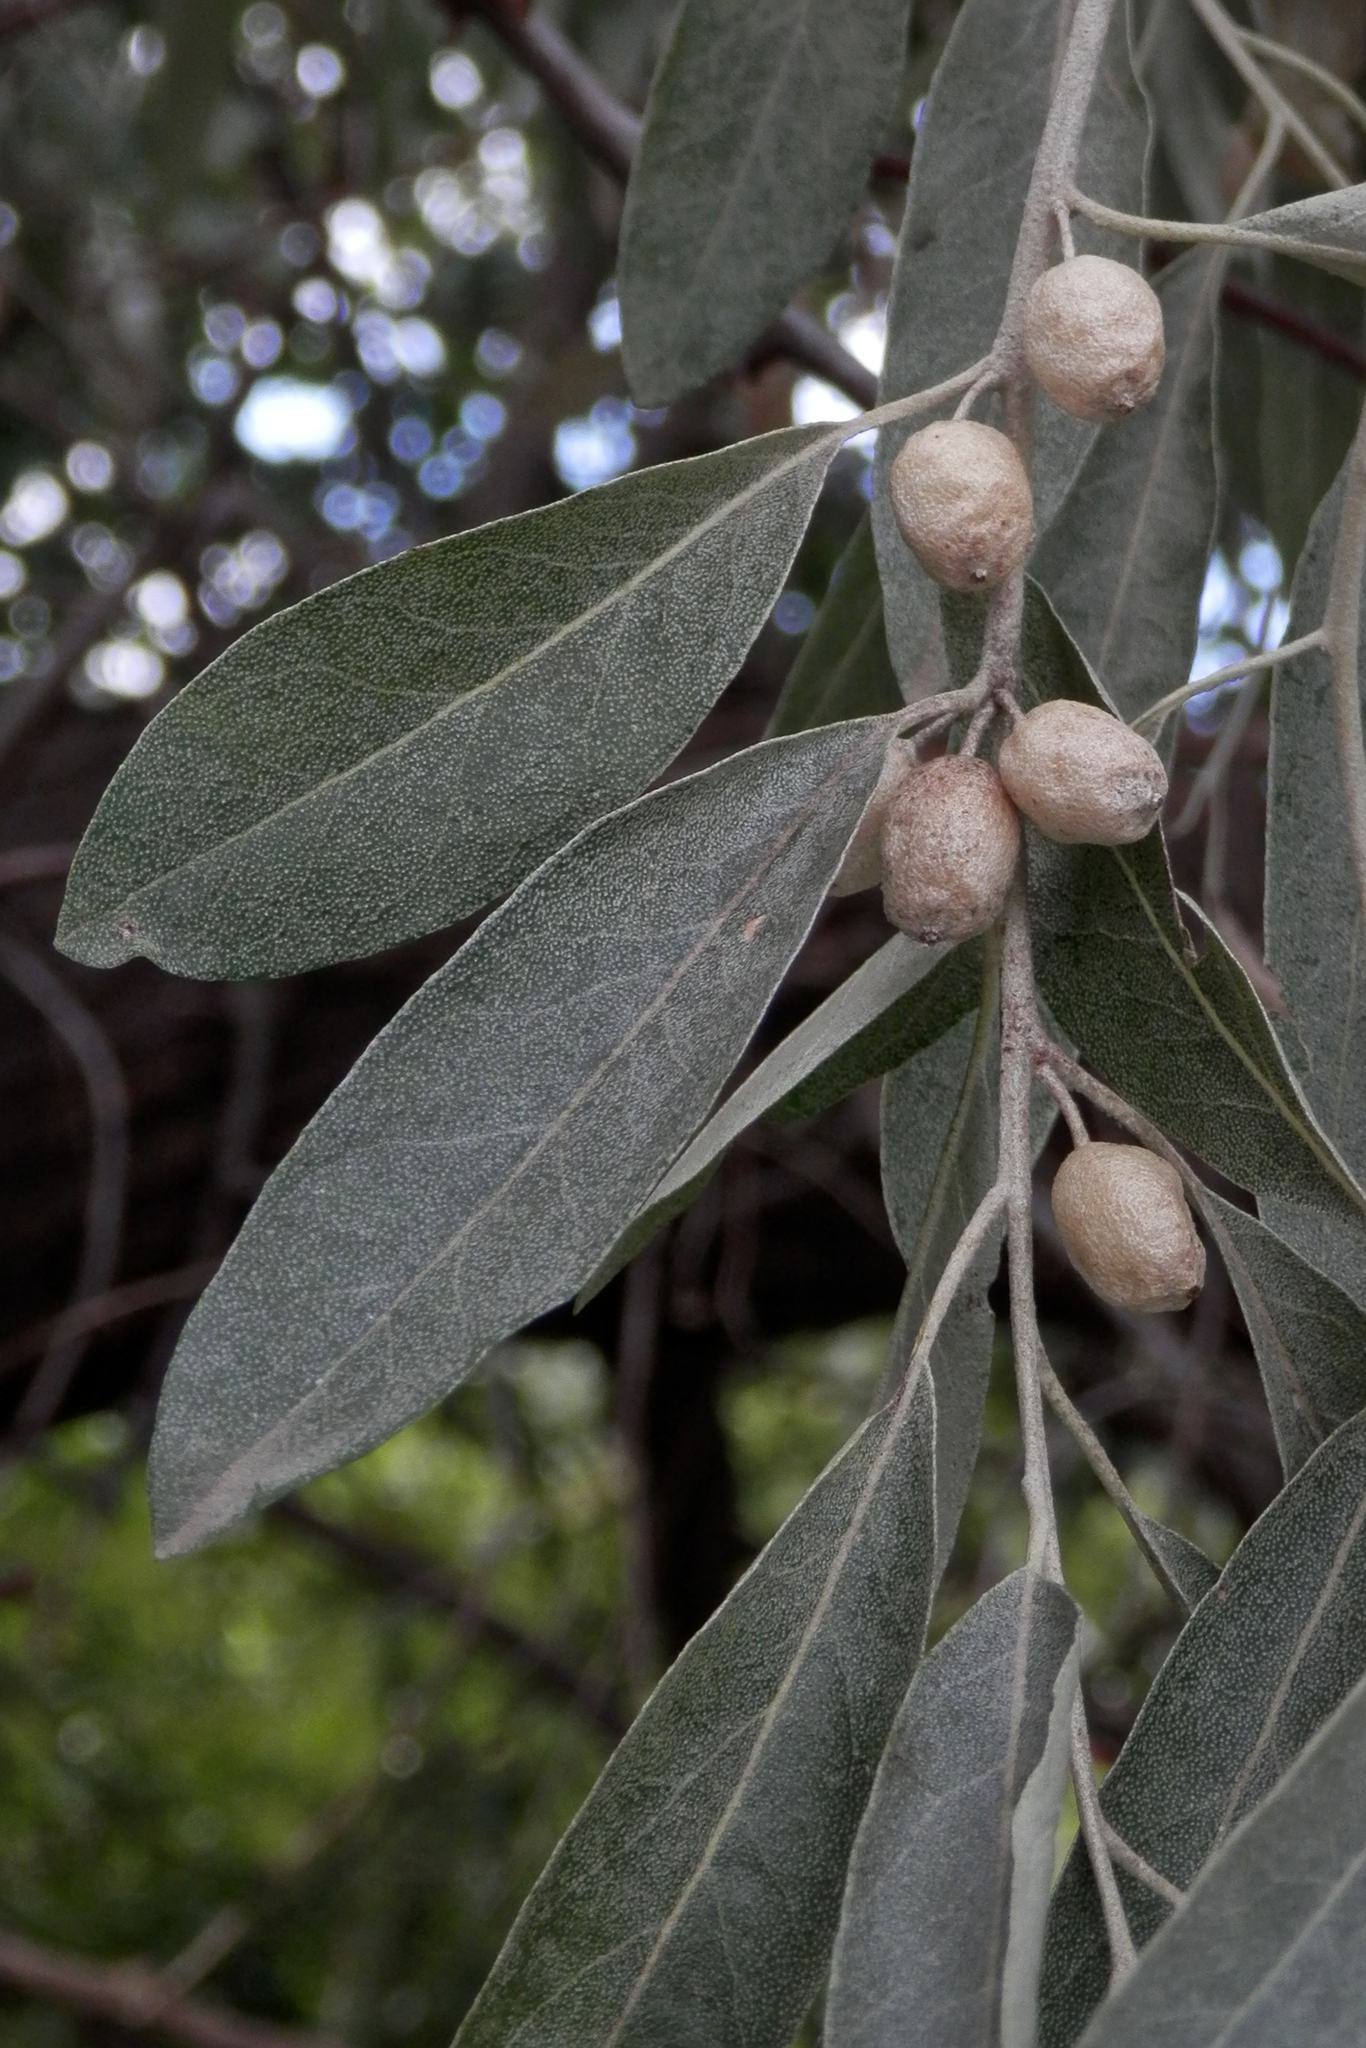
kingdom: Plantae
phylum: Tracheophyta
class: Magnoliopsida
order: Rosales
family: Elaeagnaceae
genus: Elaeagnus
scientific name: Elaeagnus angustifolia
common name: Russian olive
